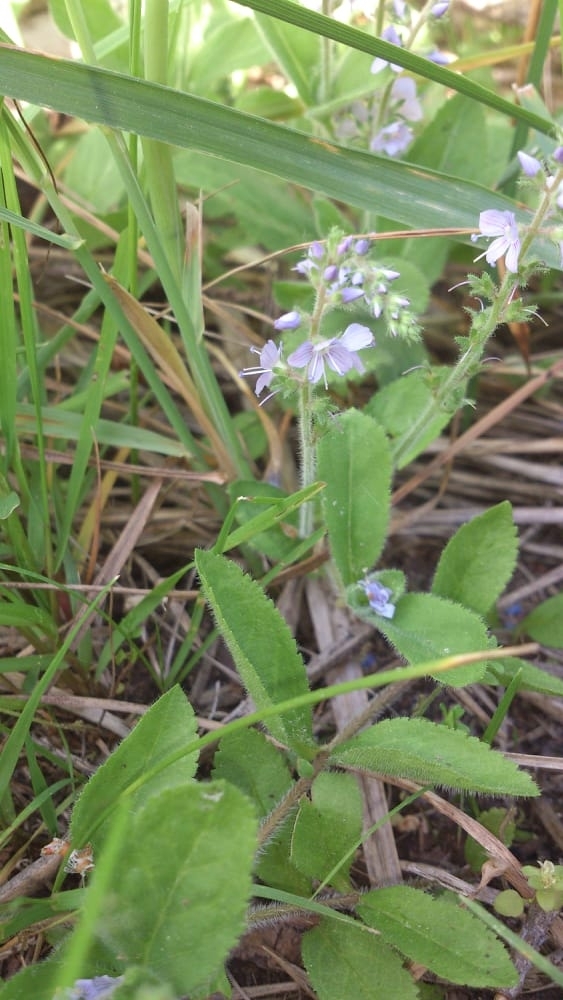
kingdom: Plantae
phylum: Tracheophyta
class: Magnoliopsida
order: Lamiales
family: Plantaginaceae
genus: Veronica
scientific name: Veronica officinalis
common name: Common speedwell
